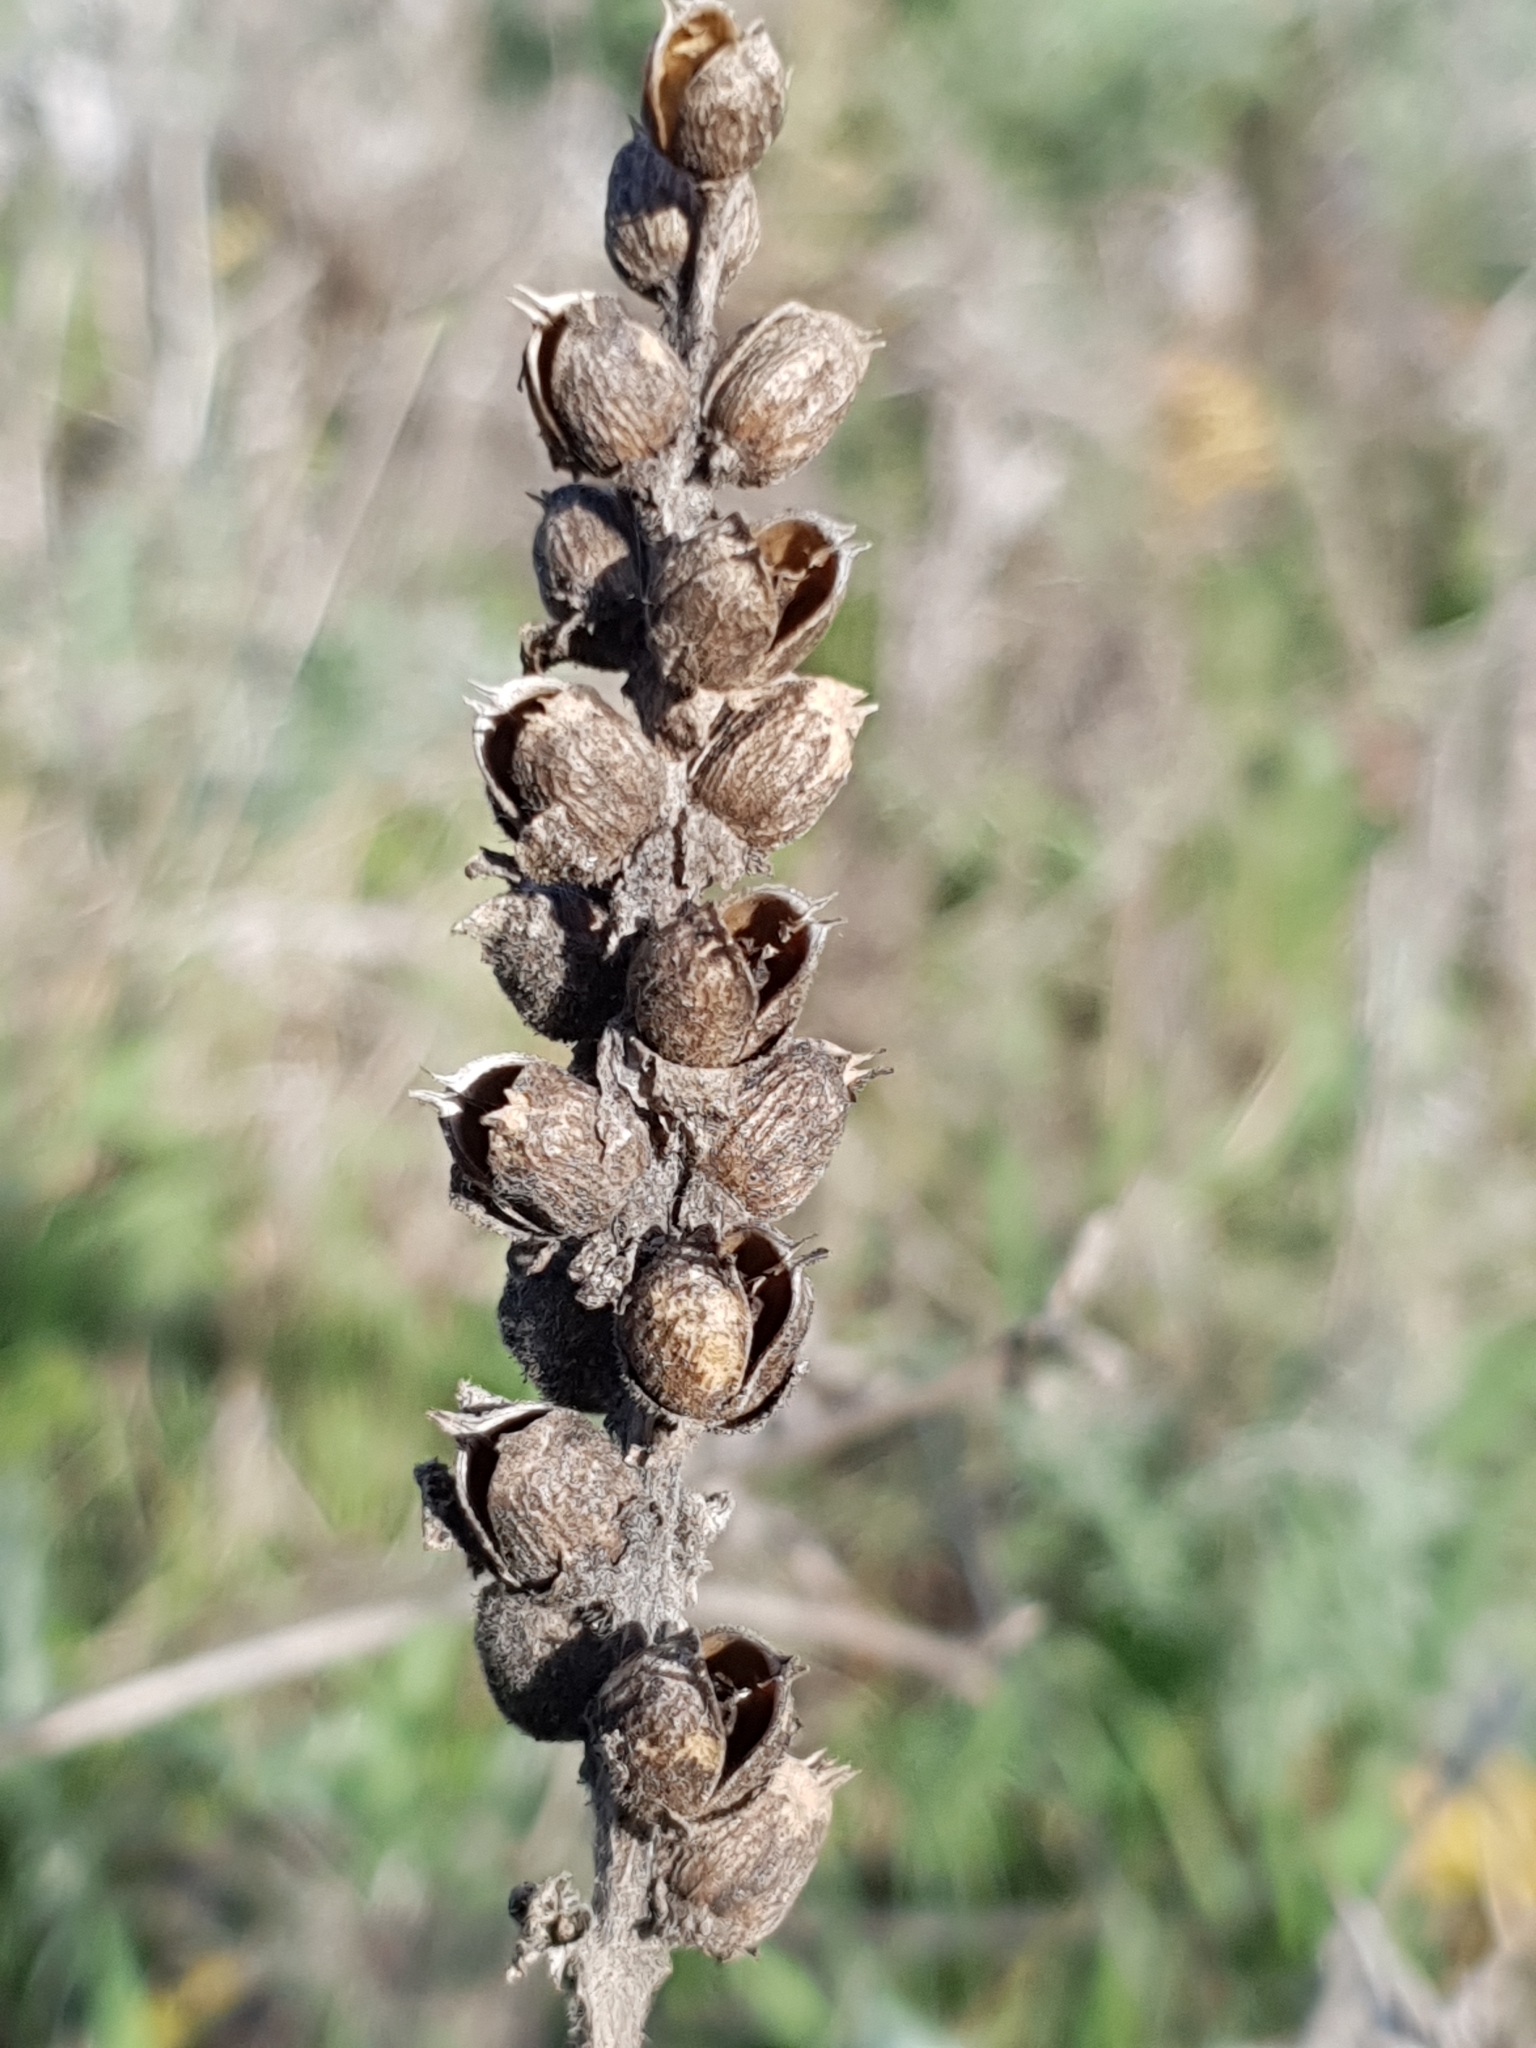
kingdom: Plantae
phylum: Tracheophyta
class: Magnoliopsida
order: Lamiales
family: Orobanchaceae
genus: Bellardia
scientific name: Bellardia trixago
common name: Mediterranean lineseed
